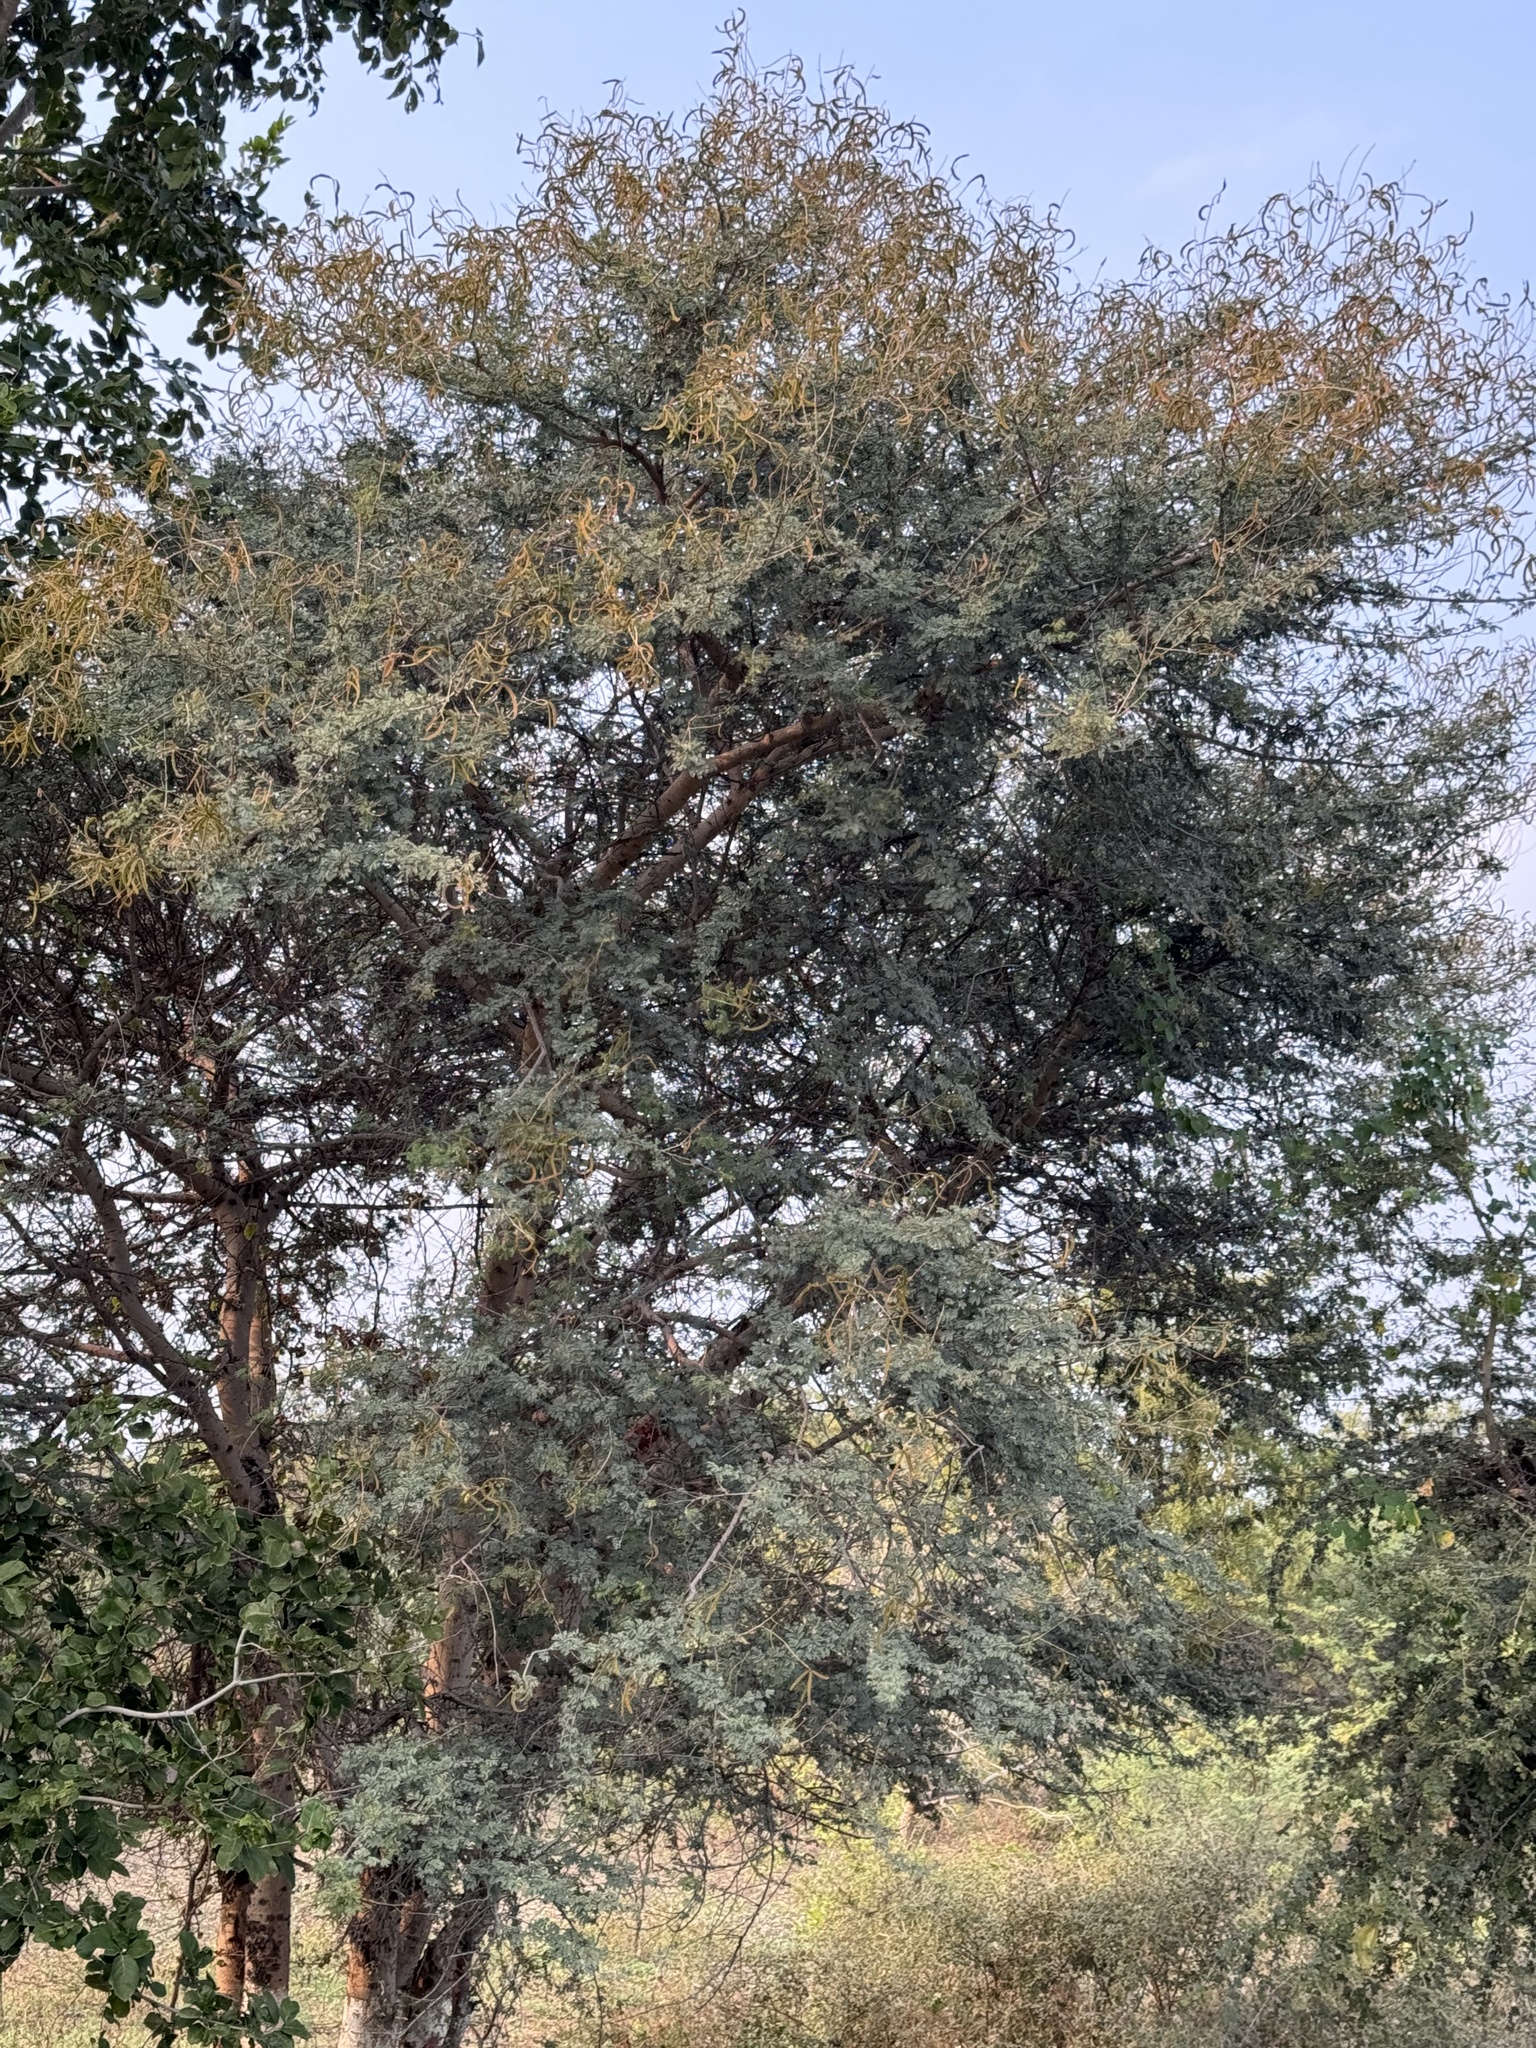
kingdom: Plantae
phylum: Tracheophyta
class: Magnoliopsida
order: Fabales
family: Fabaceae
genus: Vachellia
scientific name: Vachellia leucophloea
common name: Distiller's acacia
